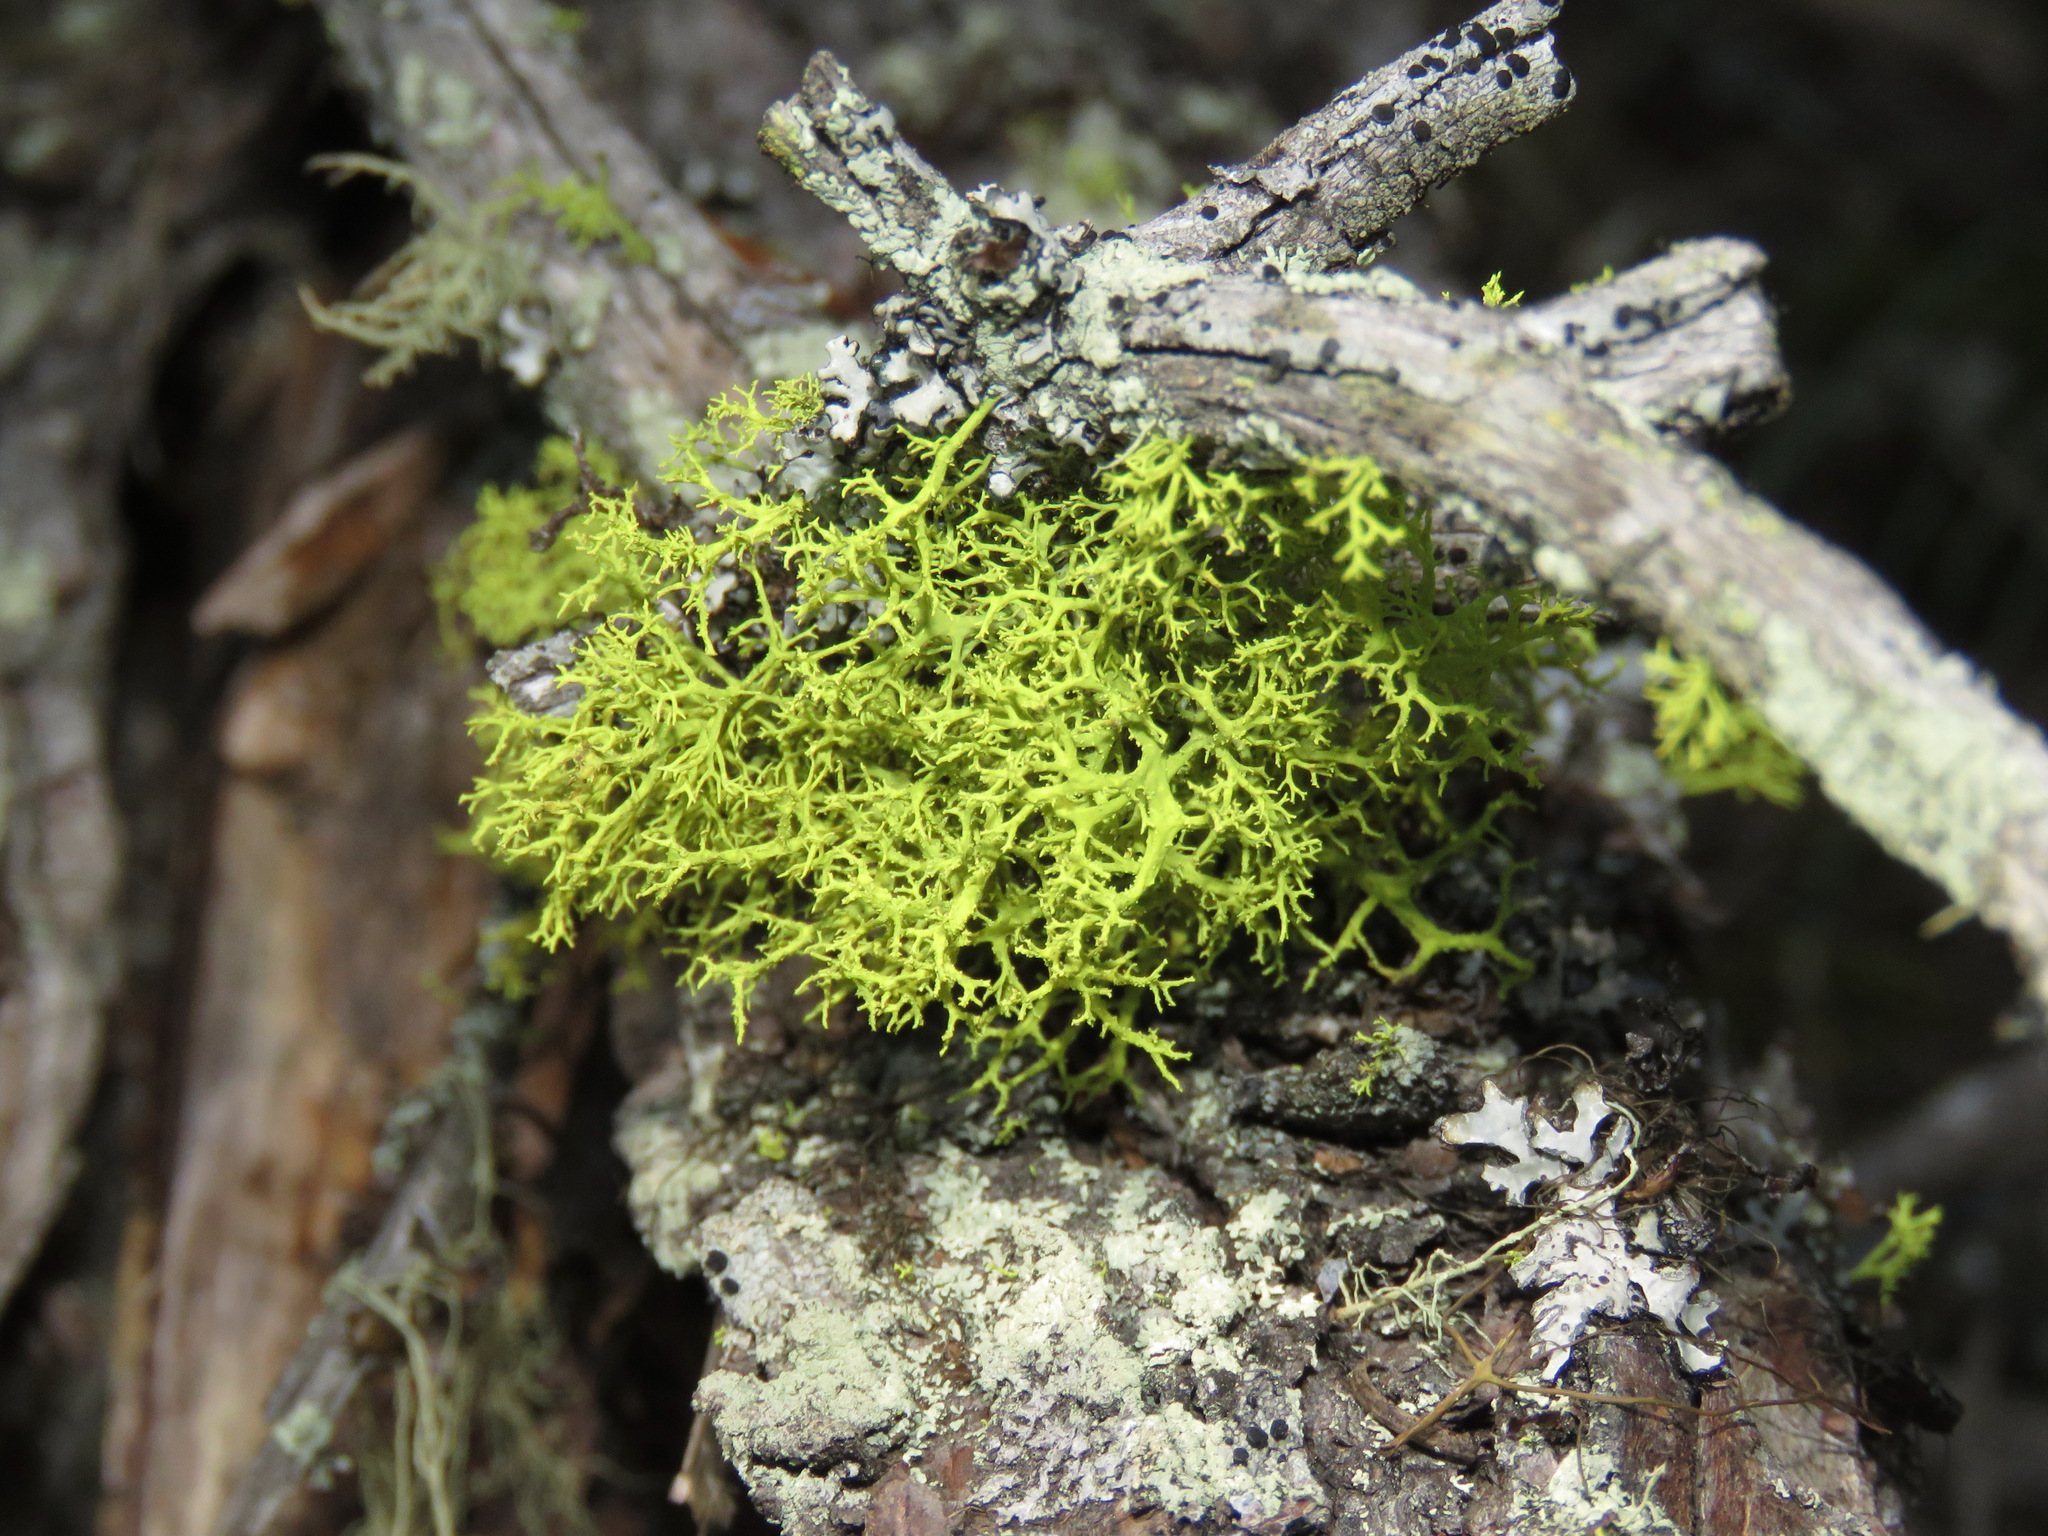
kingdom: Fungi
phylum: Ascomycota
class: Lecanoromycetes
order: Lecanorales
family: Parmeliaceae
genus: Letharia
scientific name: Letharia vulpina
